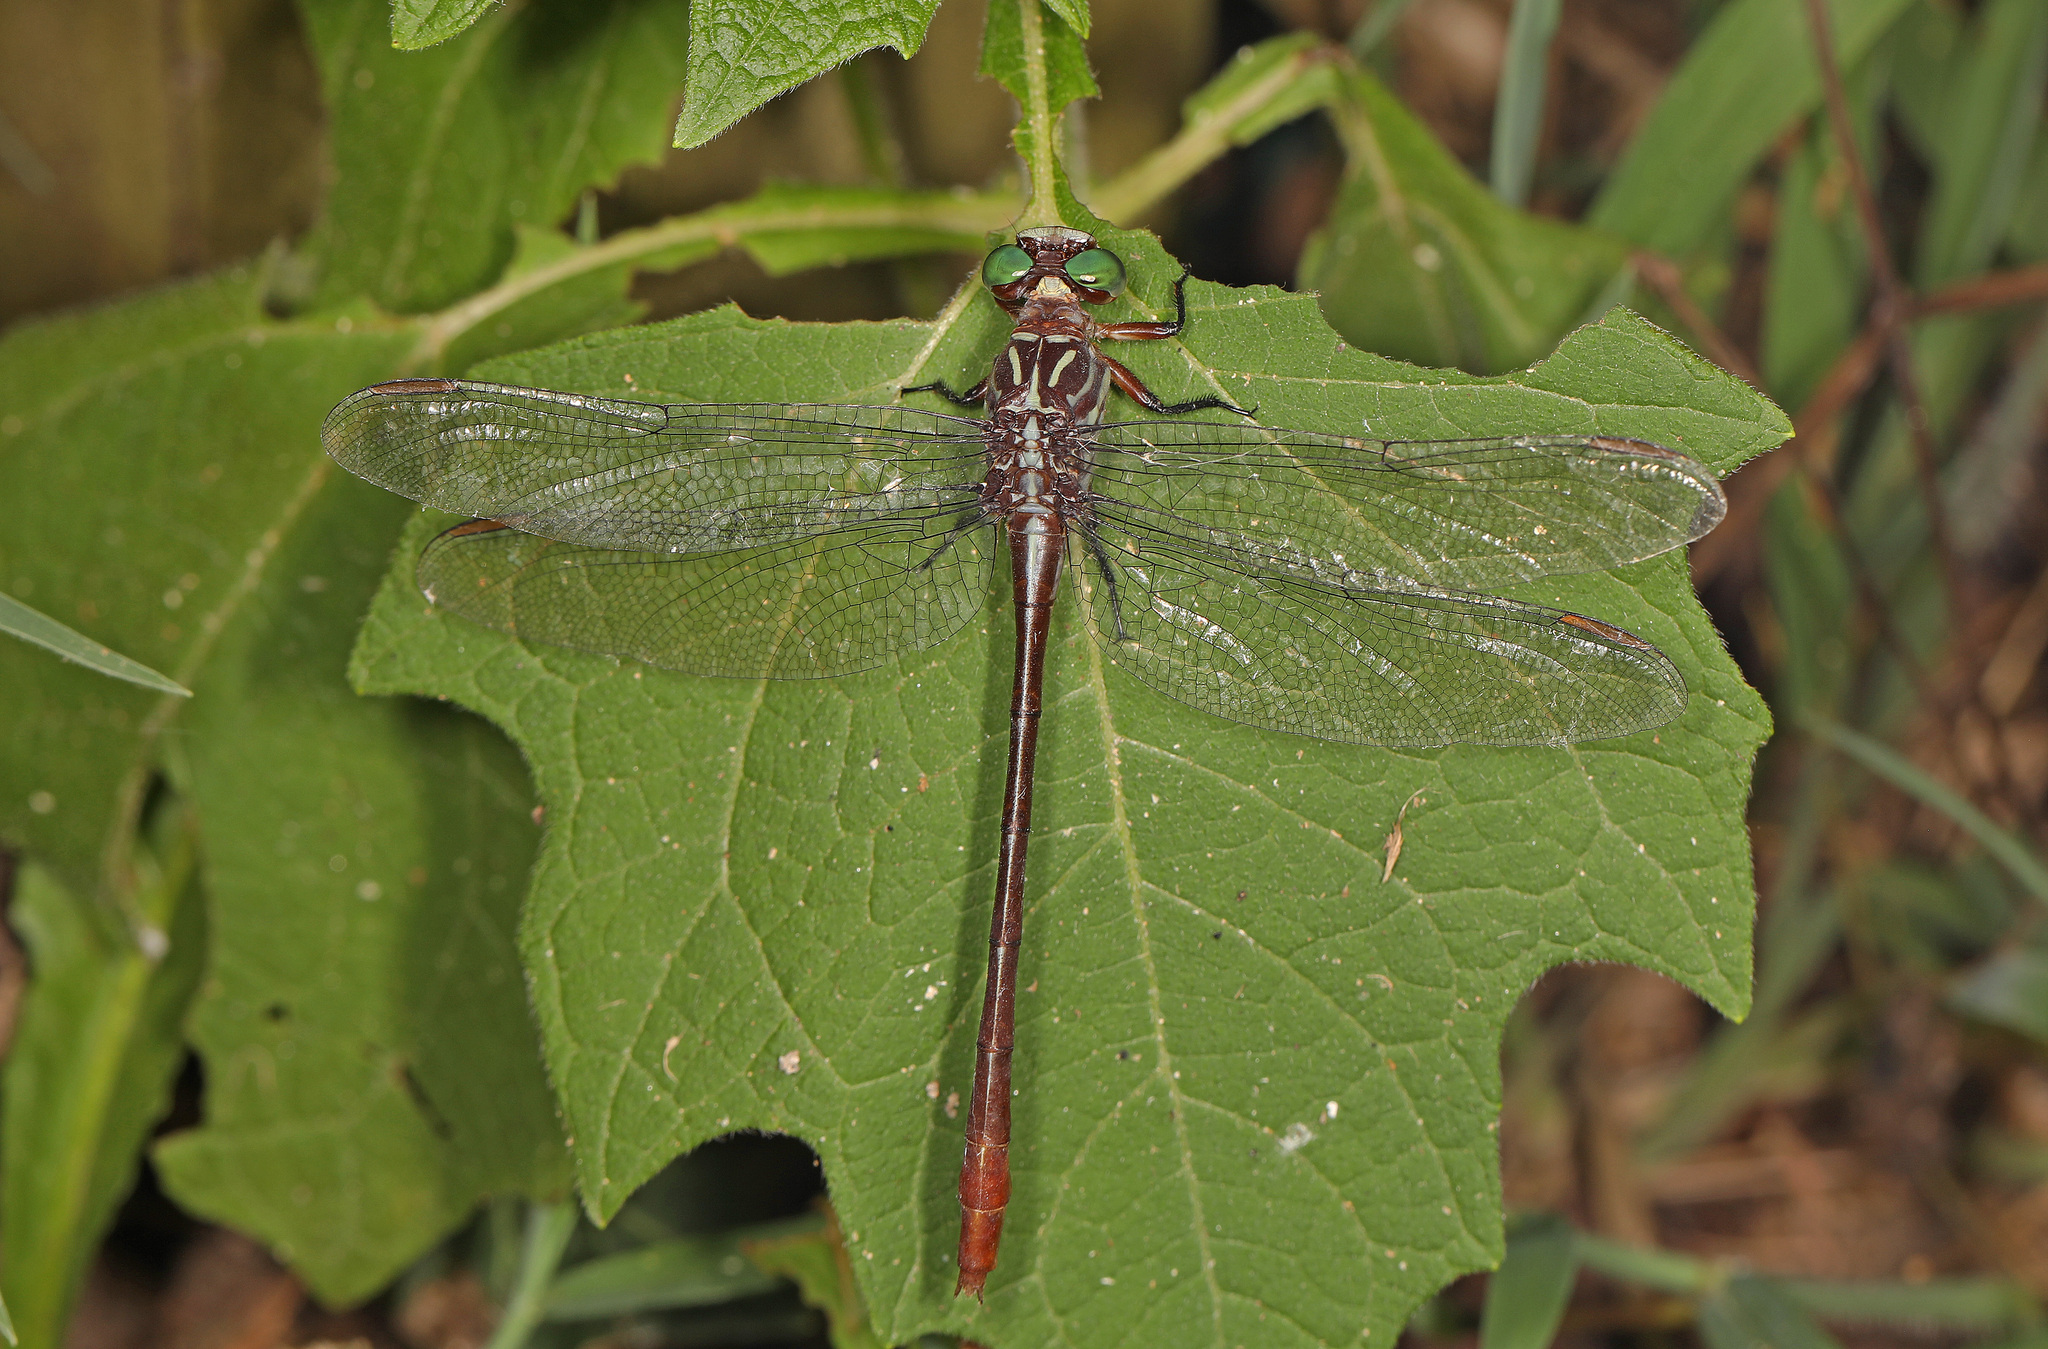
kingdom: Animalia
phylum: Arthropoda
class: Insecta
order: Odonata
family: Gomphidae
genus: Stylurus
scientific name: Stylurus plagiatus
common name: Russet-tipped clubtail
